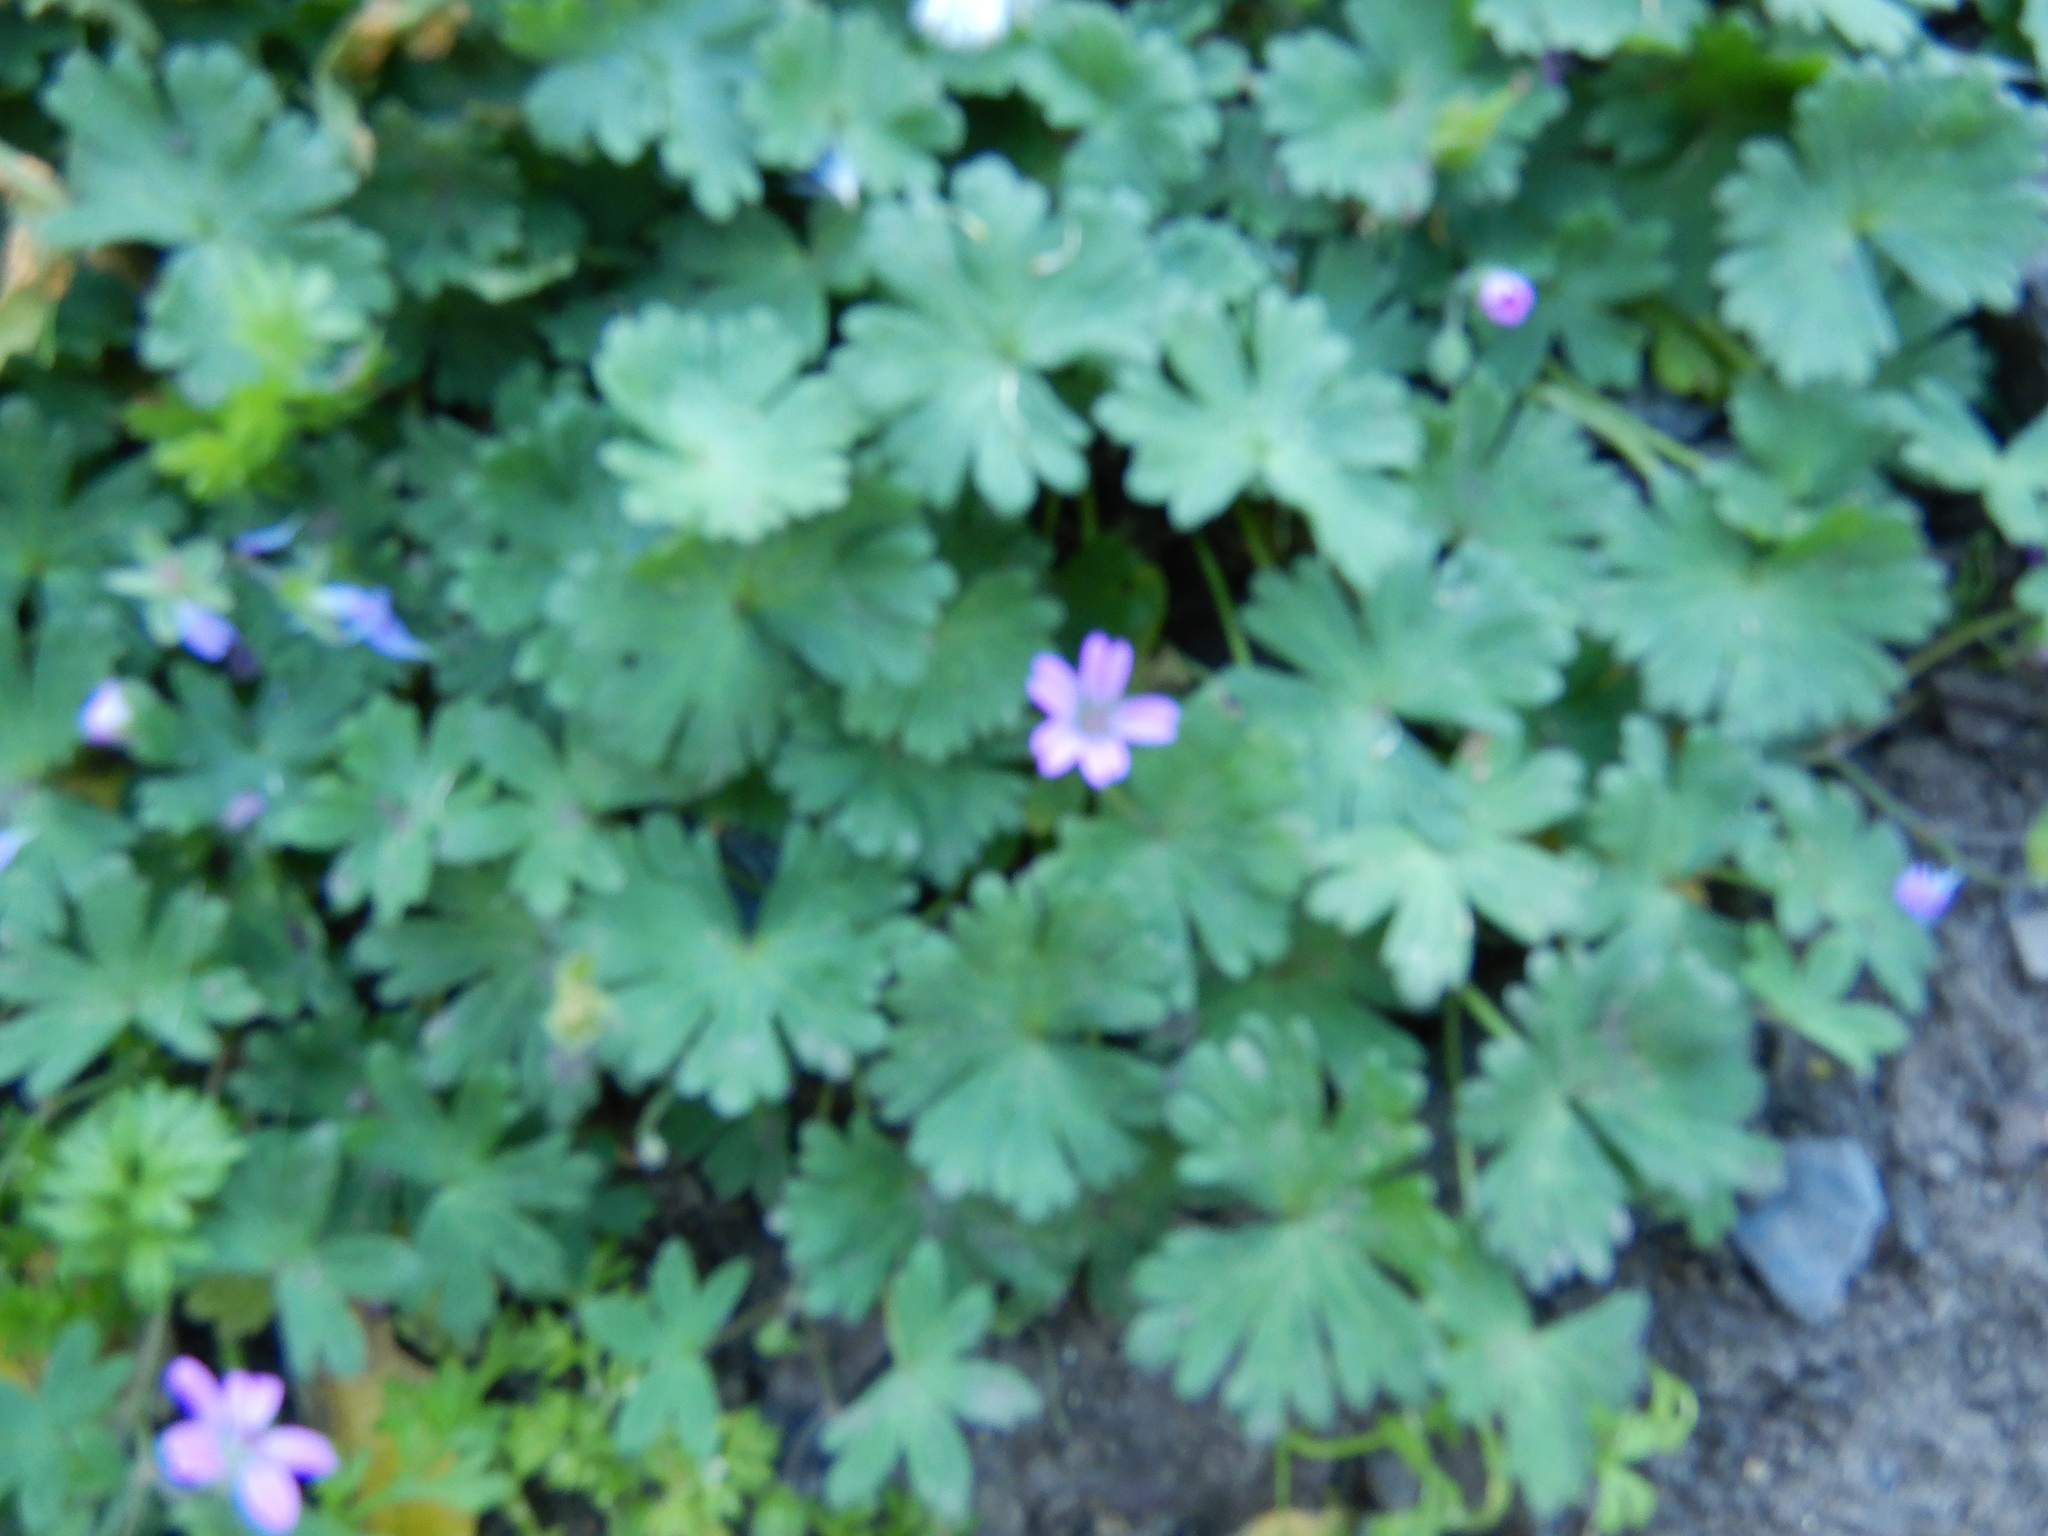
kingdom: Plantae
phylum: Tracheophyta
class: Magnoliopsida
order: Geraniales
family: Geraniaceae
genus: Geranium
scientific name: Geranium molle
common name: Dove's-foot crane's-bill
